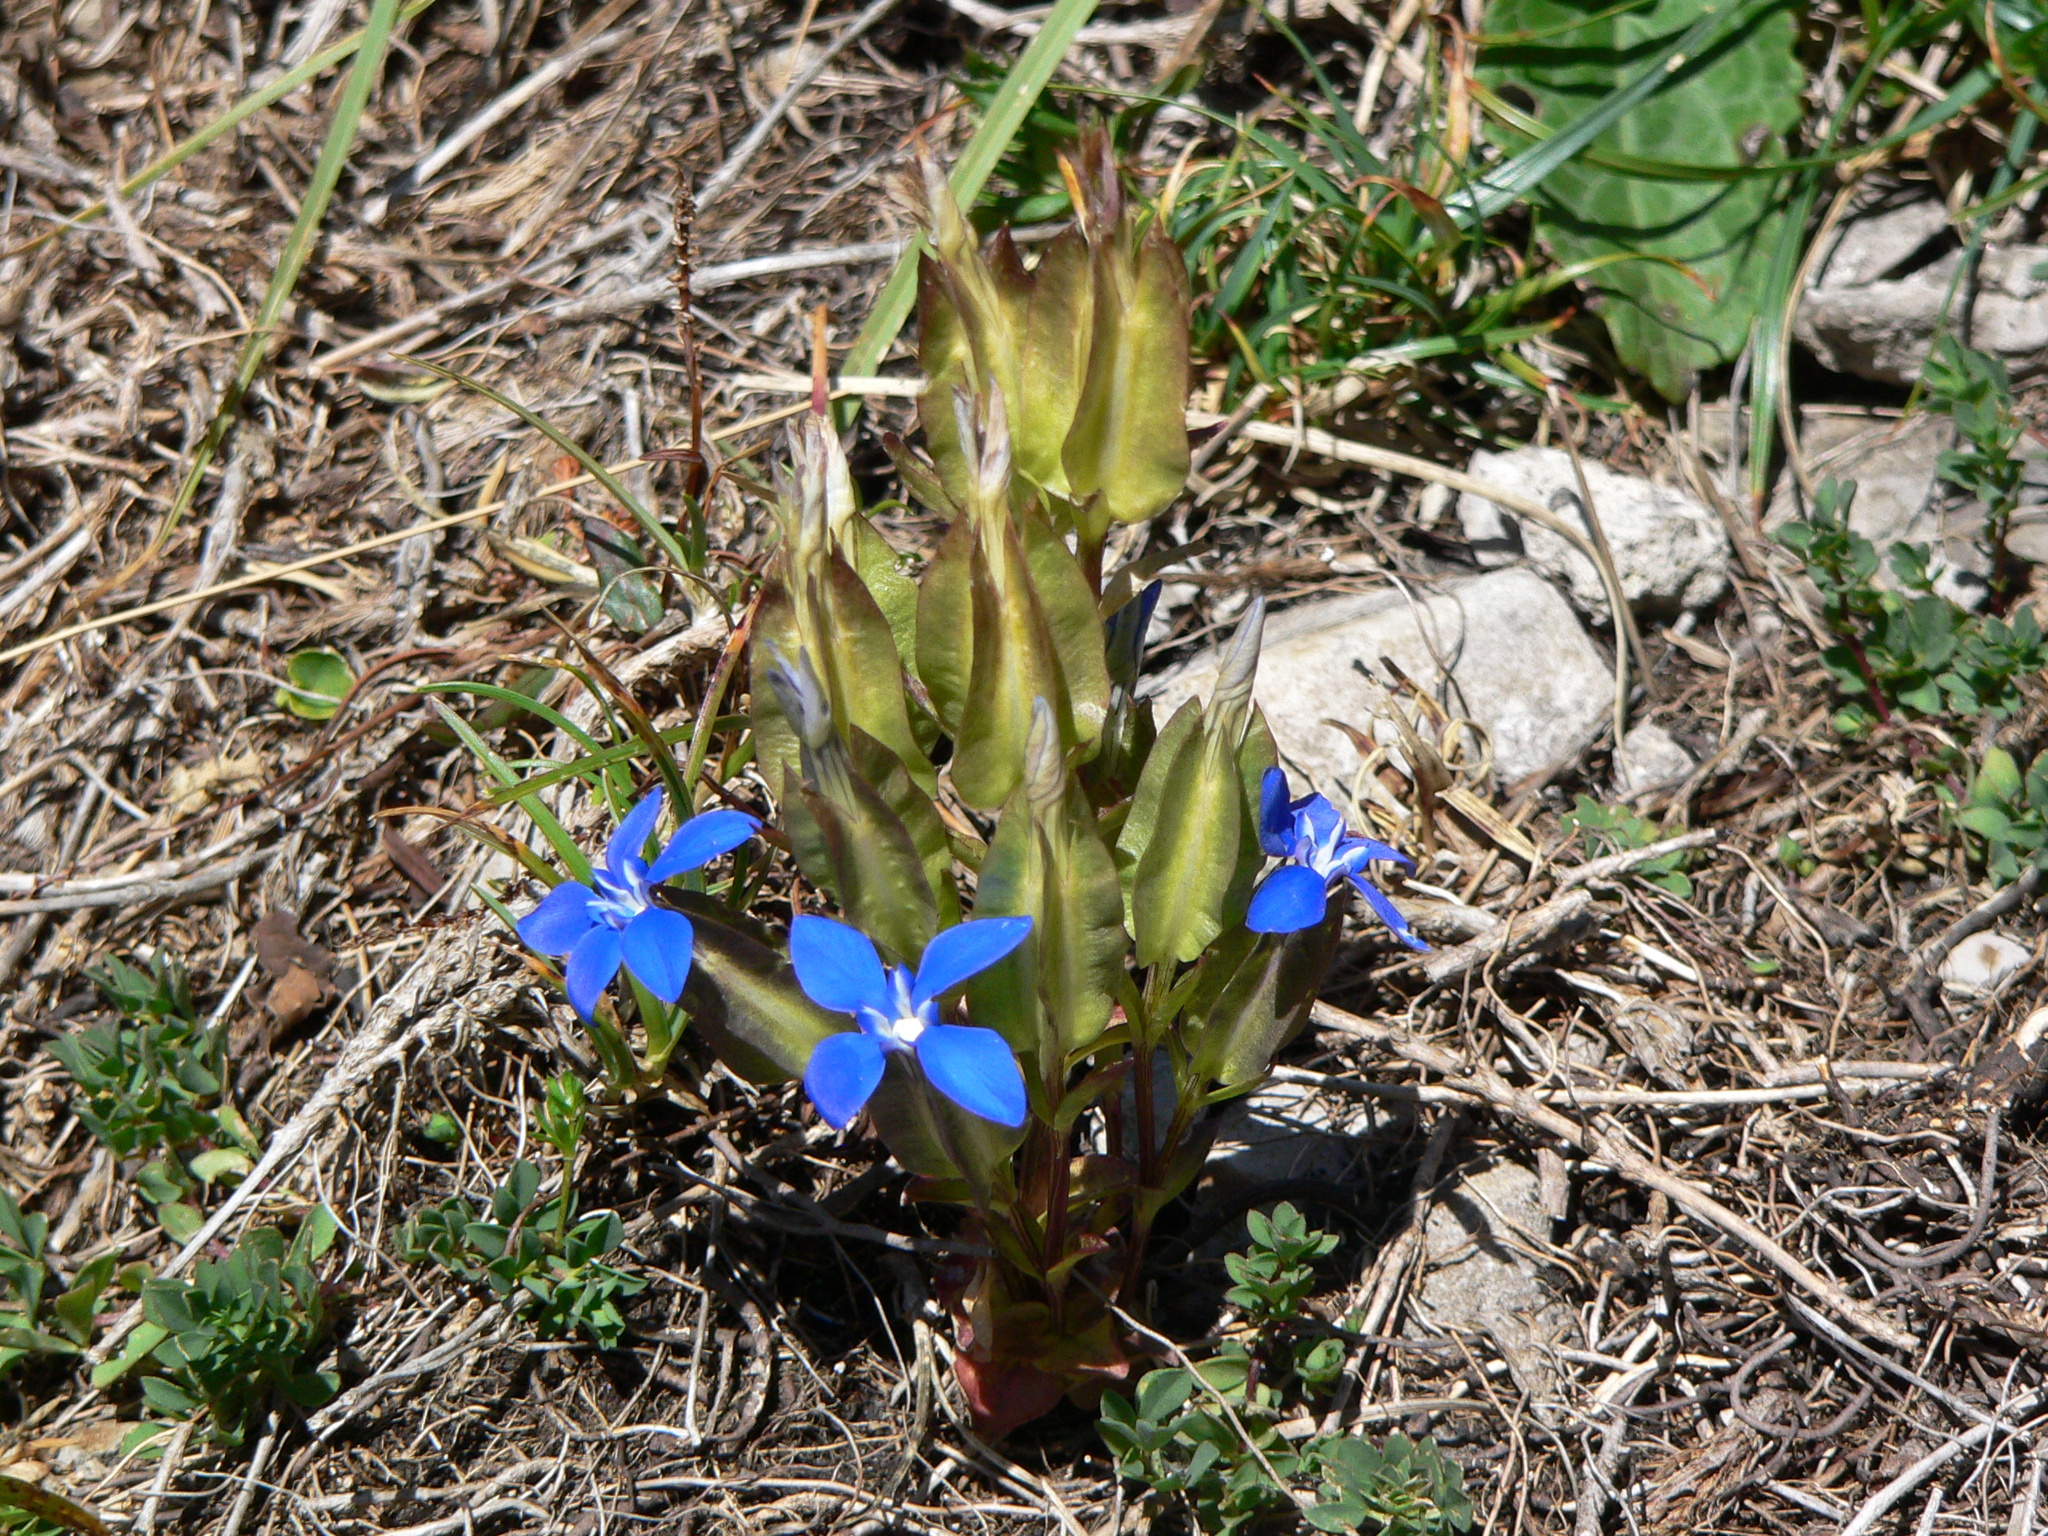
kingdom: Plantae
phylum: Tracheophyta
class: Magnoliopsida
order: Gentianales
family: Gentianaceae
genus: Gentiana
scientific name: Gentiana utriculosa
